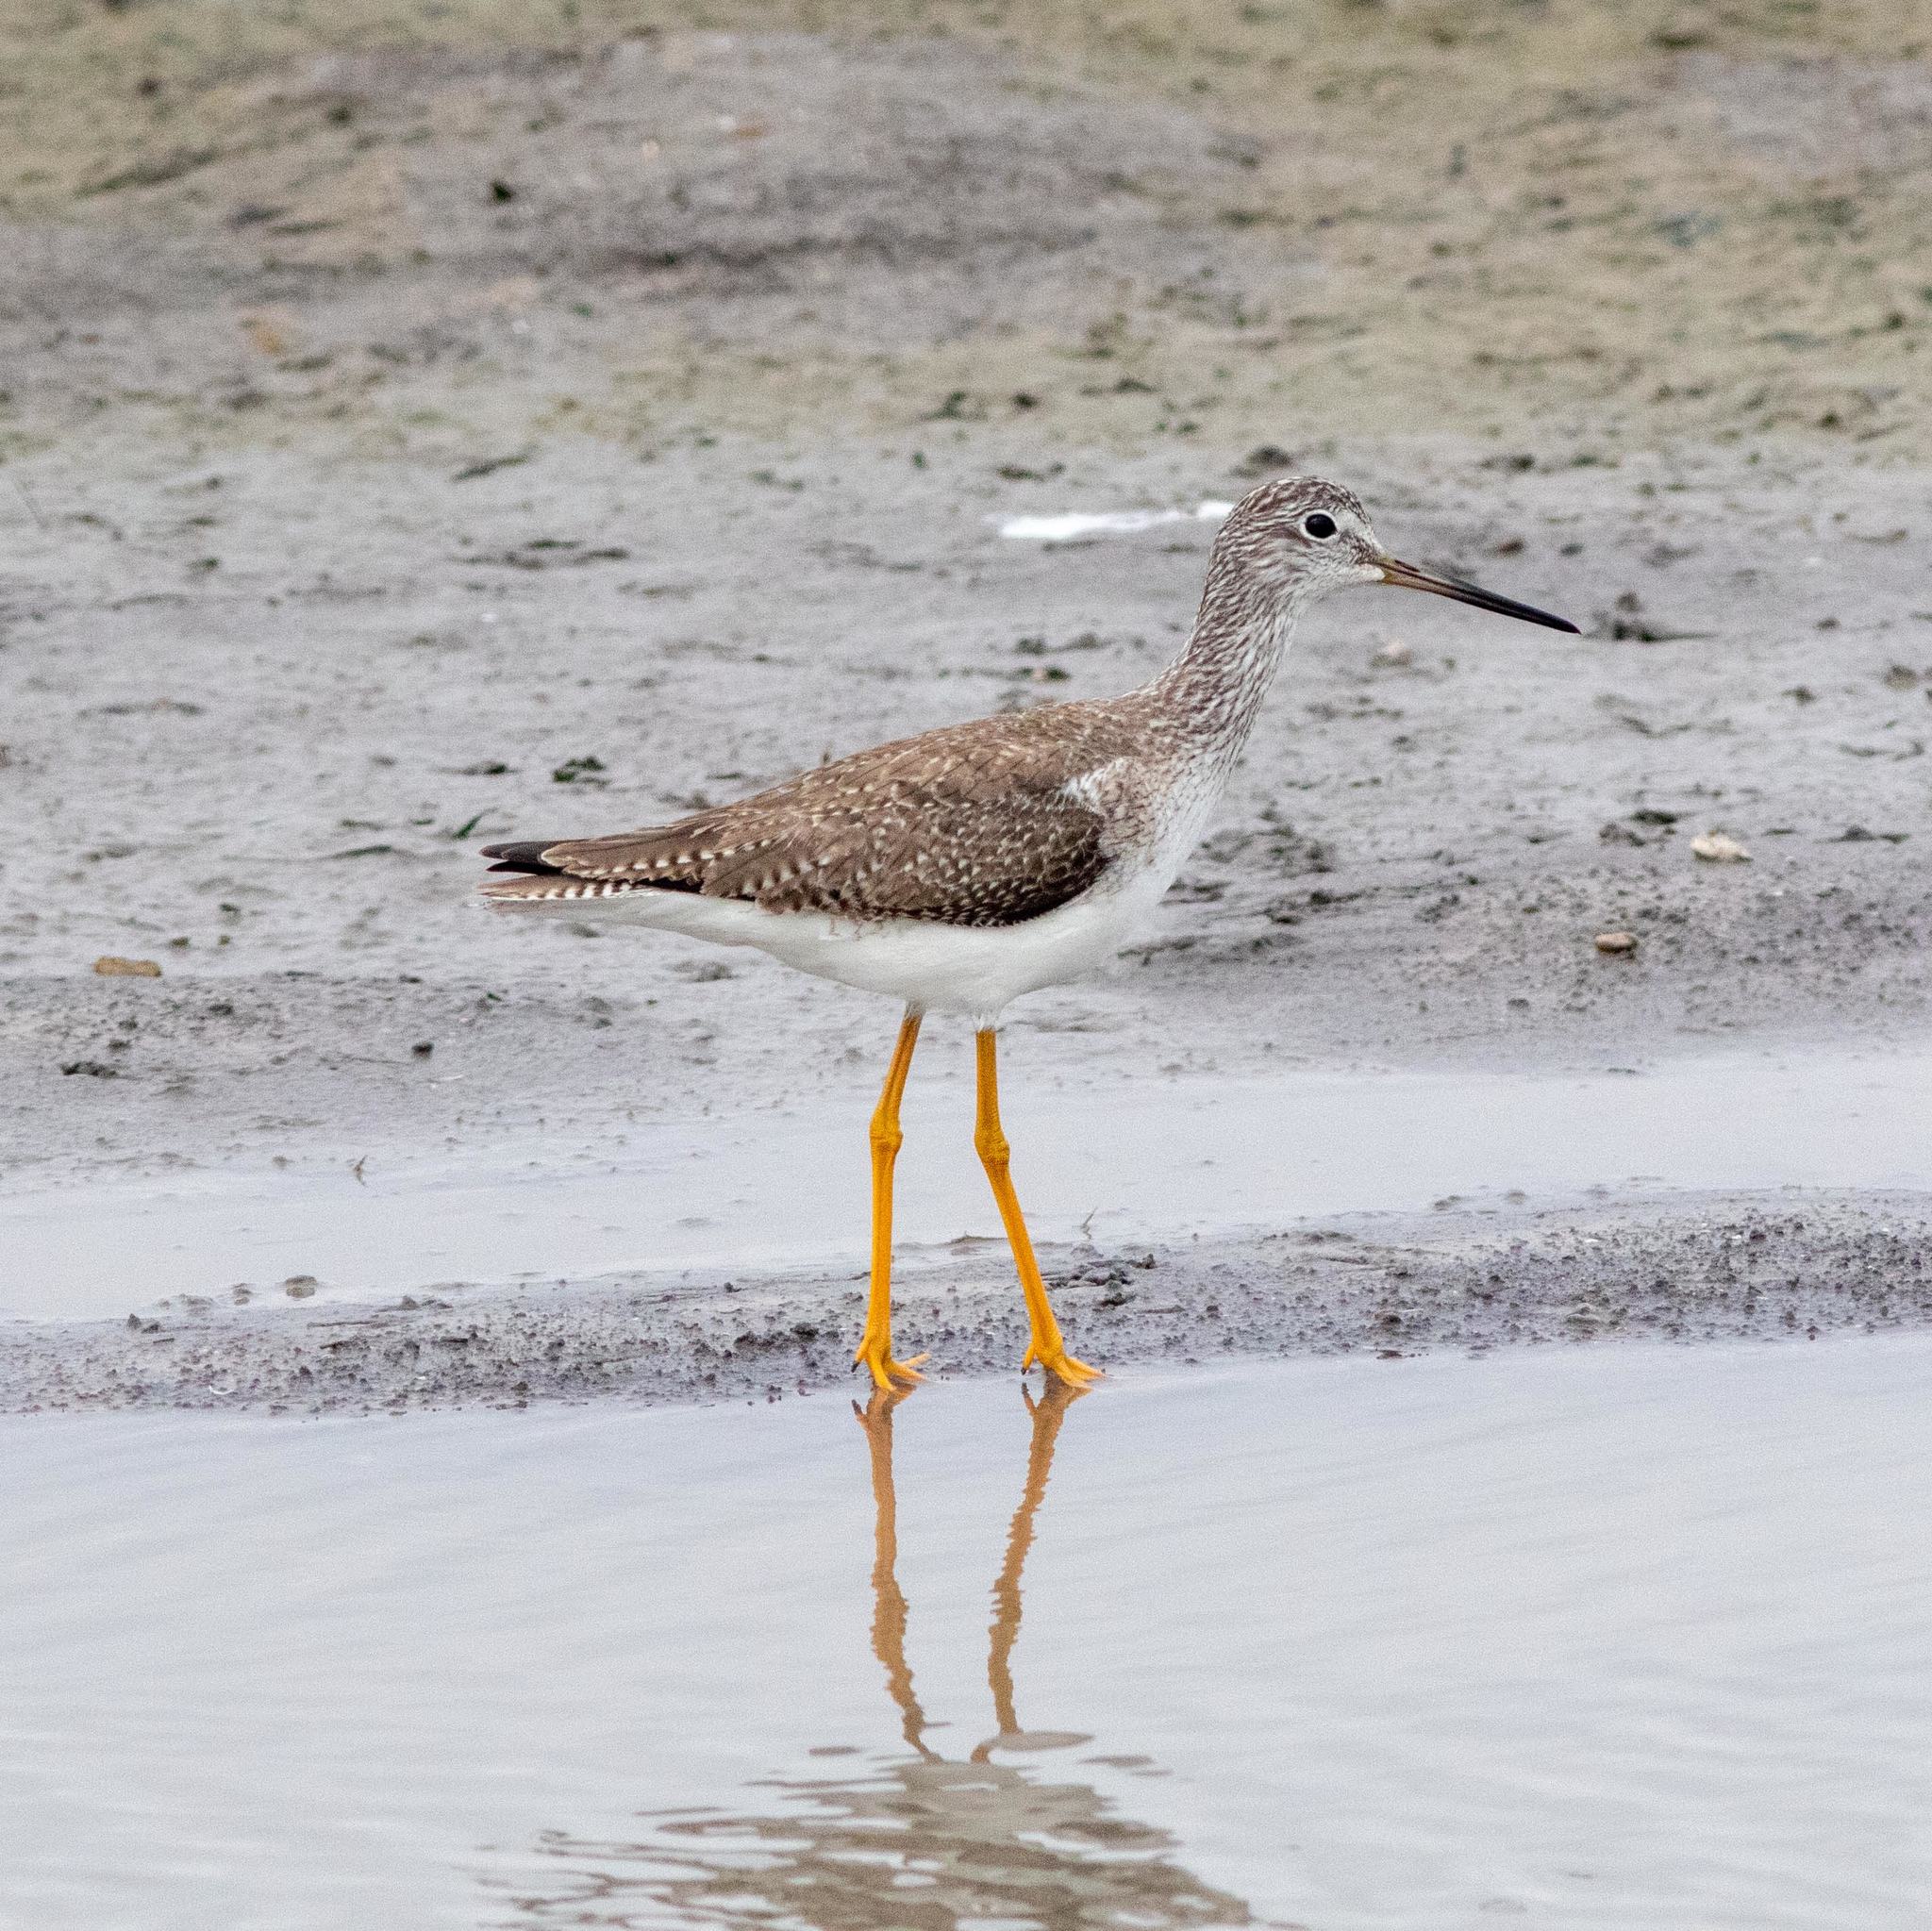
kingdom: Animalia
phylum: Chordata
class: Aves
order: Charadriiformes
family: Scolopacidae
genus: Tringa
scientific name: Tringa melanoleuca
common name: Greater yellowlegs
